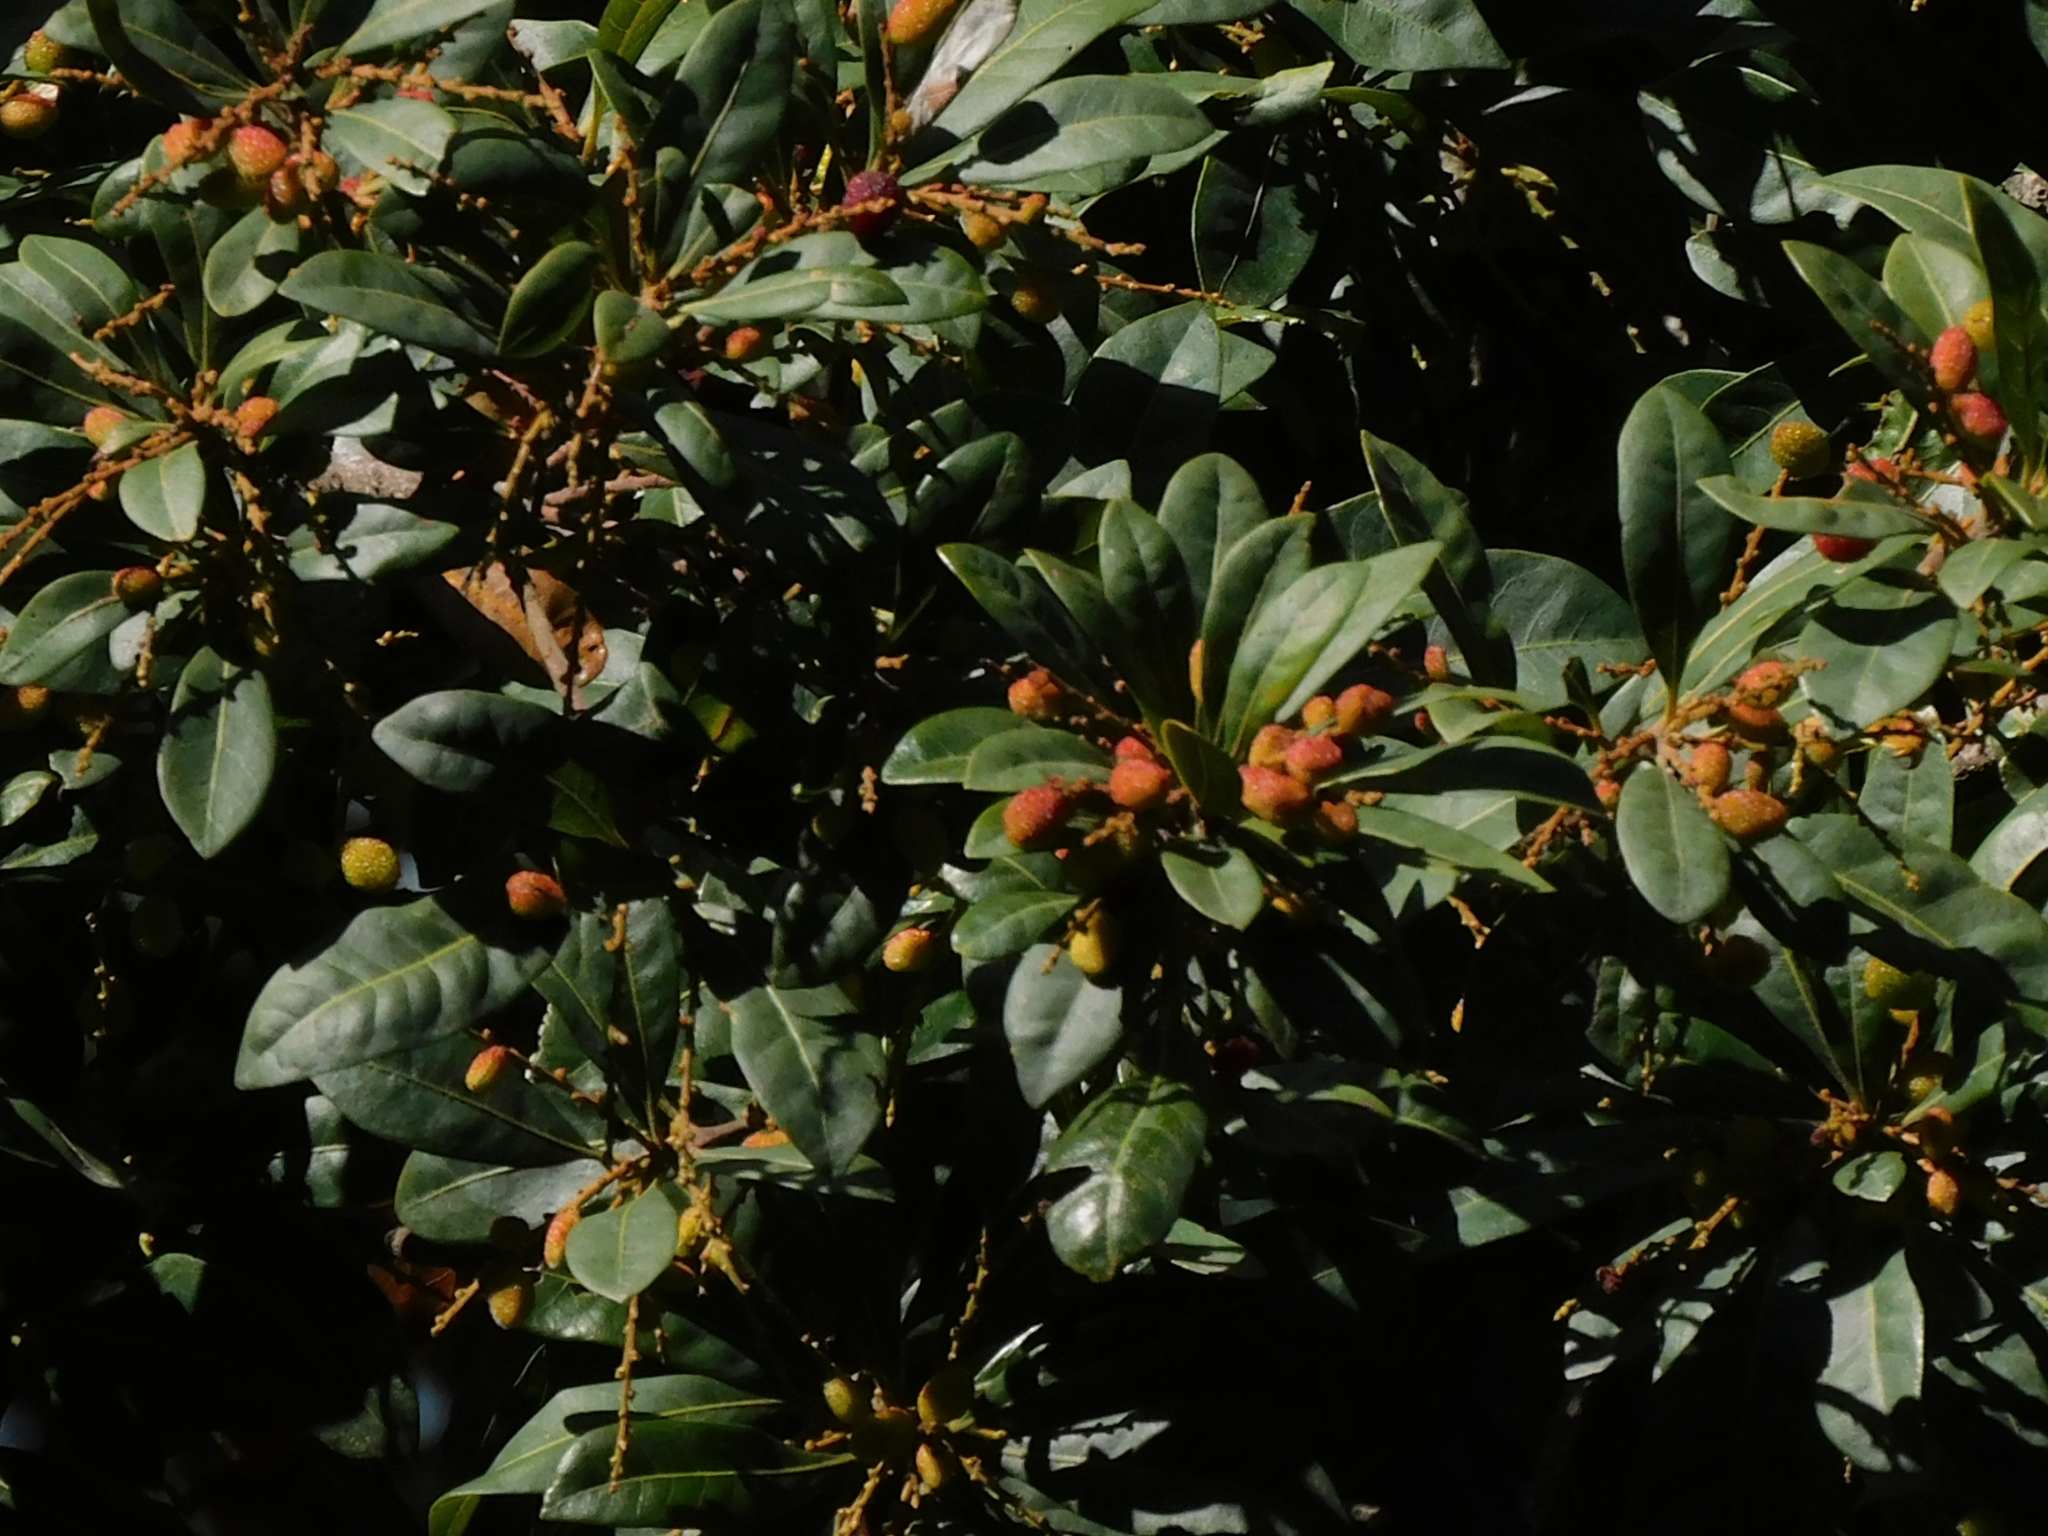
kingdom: Plantae
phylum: Tracheophyta
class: Magnoliopsida
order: Fagales
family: Myricaceae
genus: Morella
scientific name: Morella esculenta
